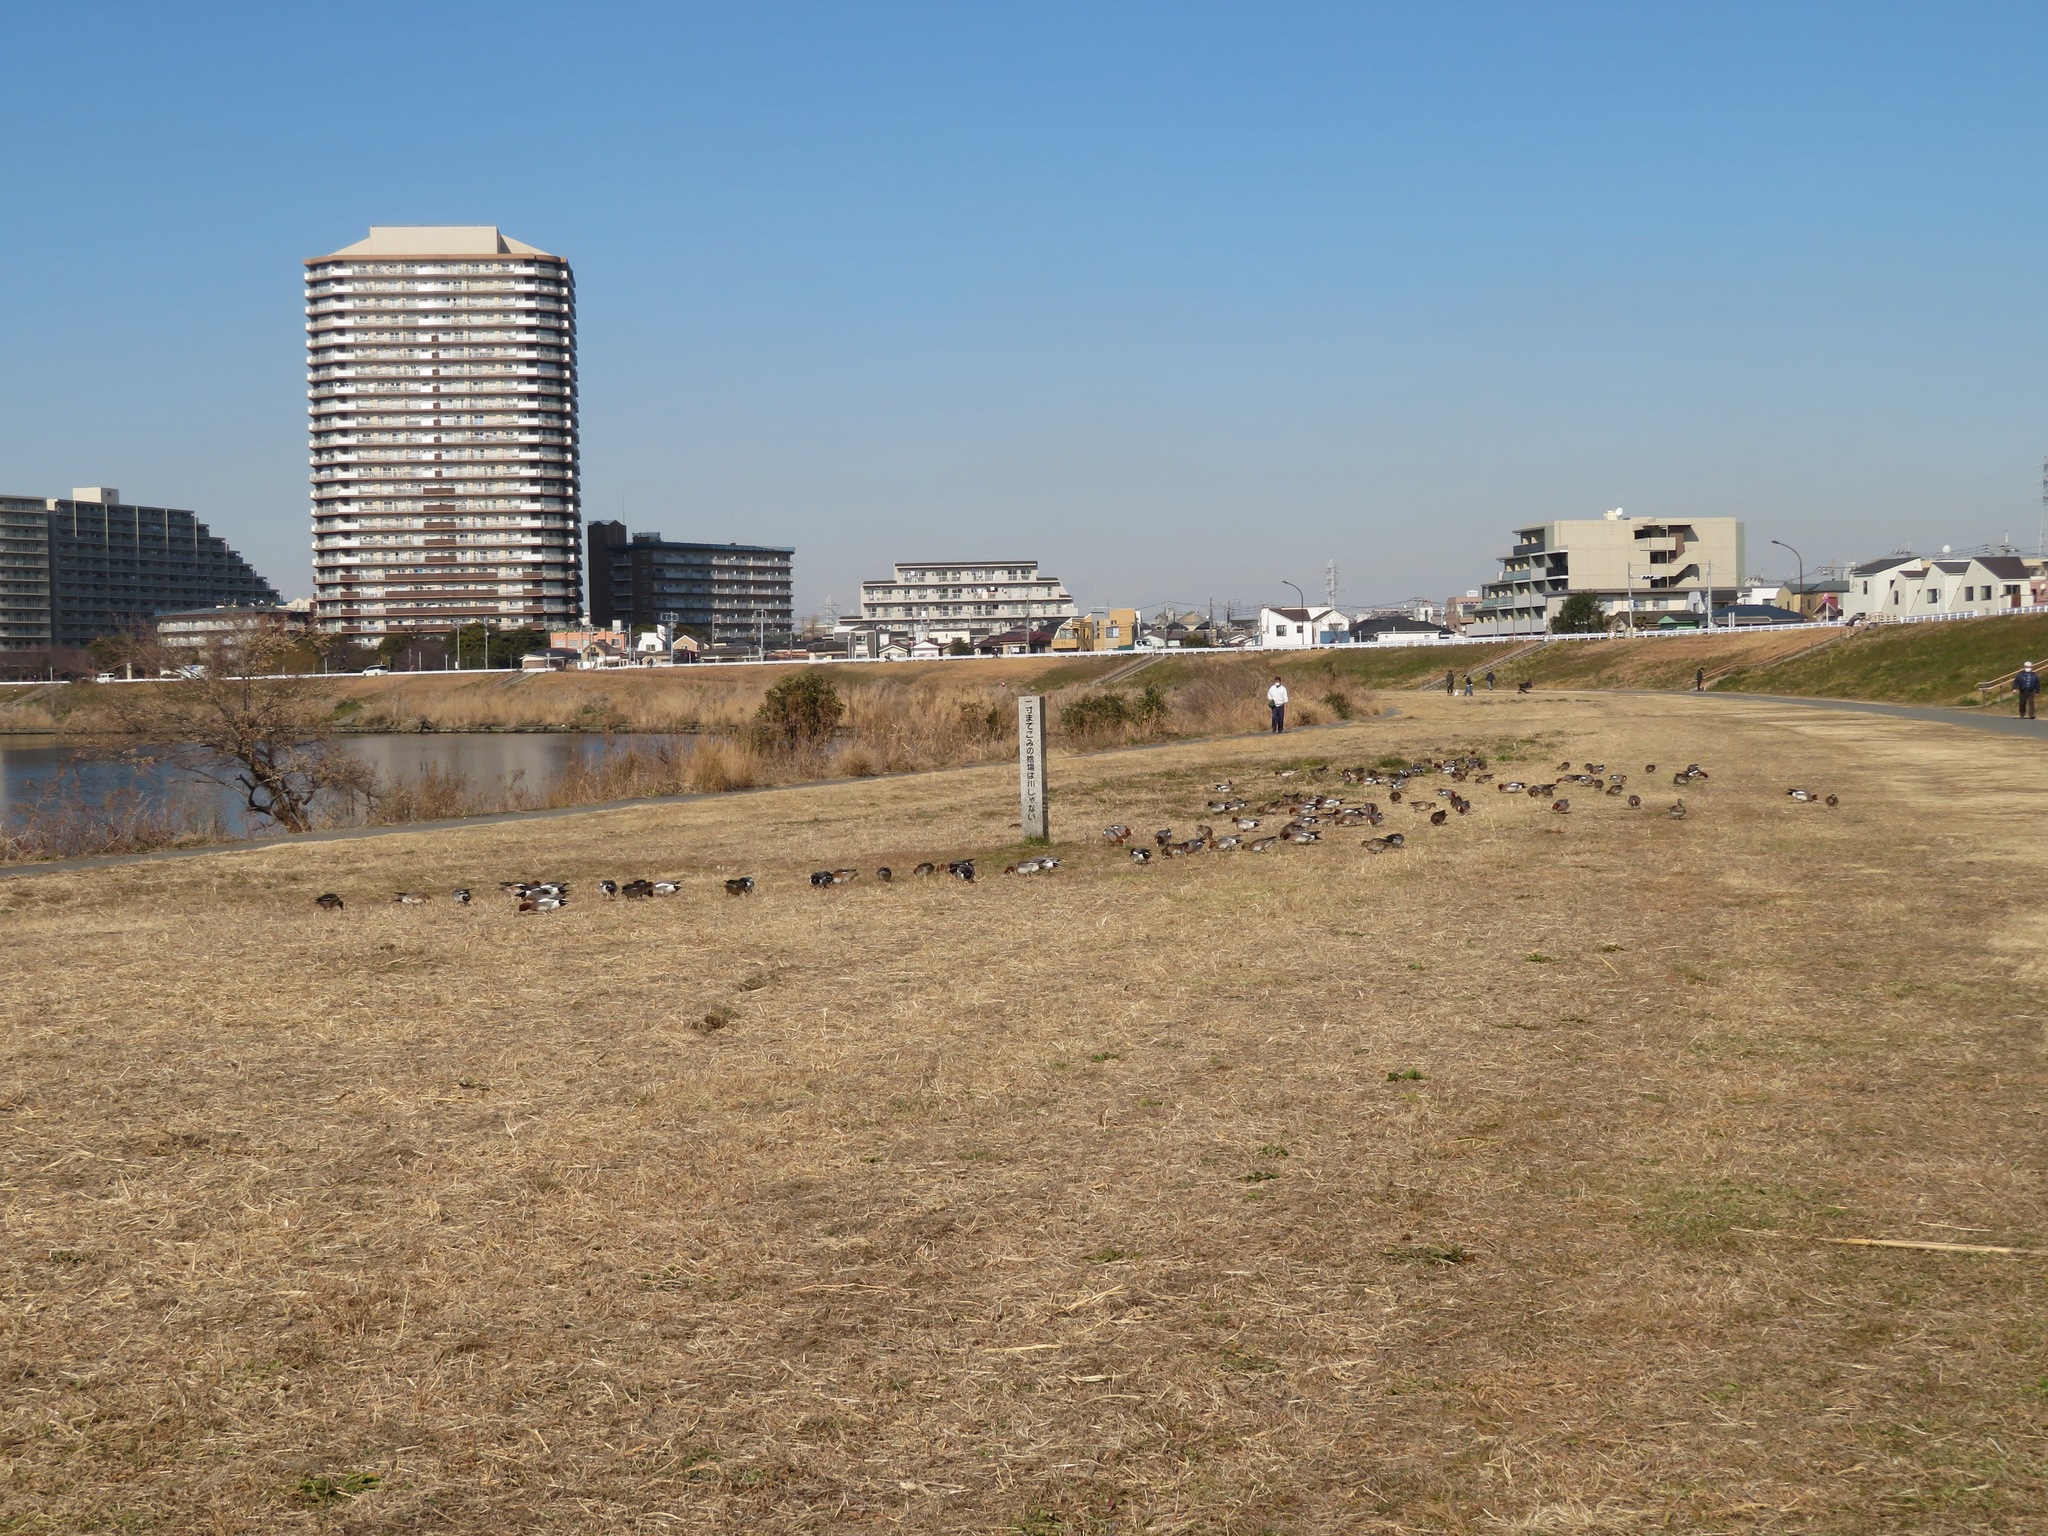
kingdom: Animalia
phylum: Chordata
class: Aves
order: Anseriformes
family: Anatidae
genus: Mareca
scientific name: Mareca penelope
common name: Eurasian wigeon
